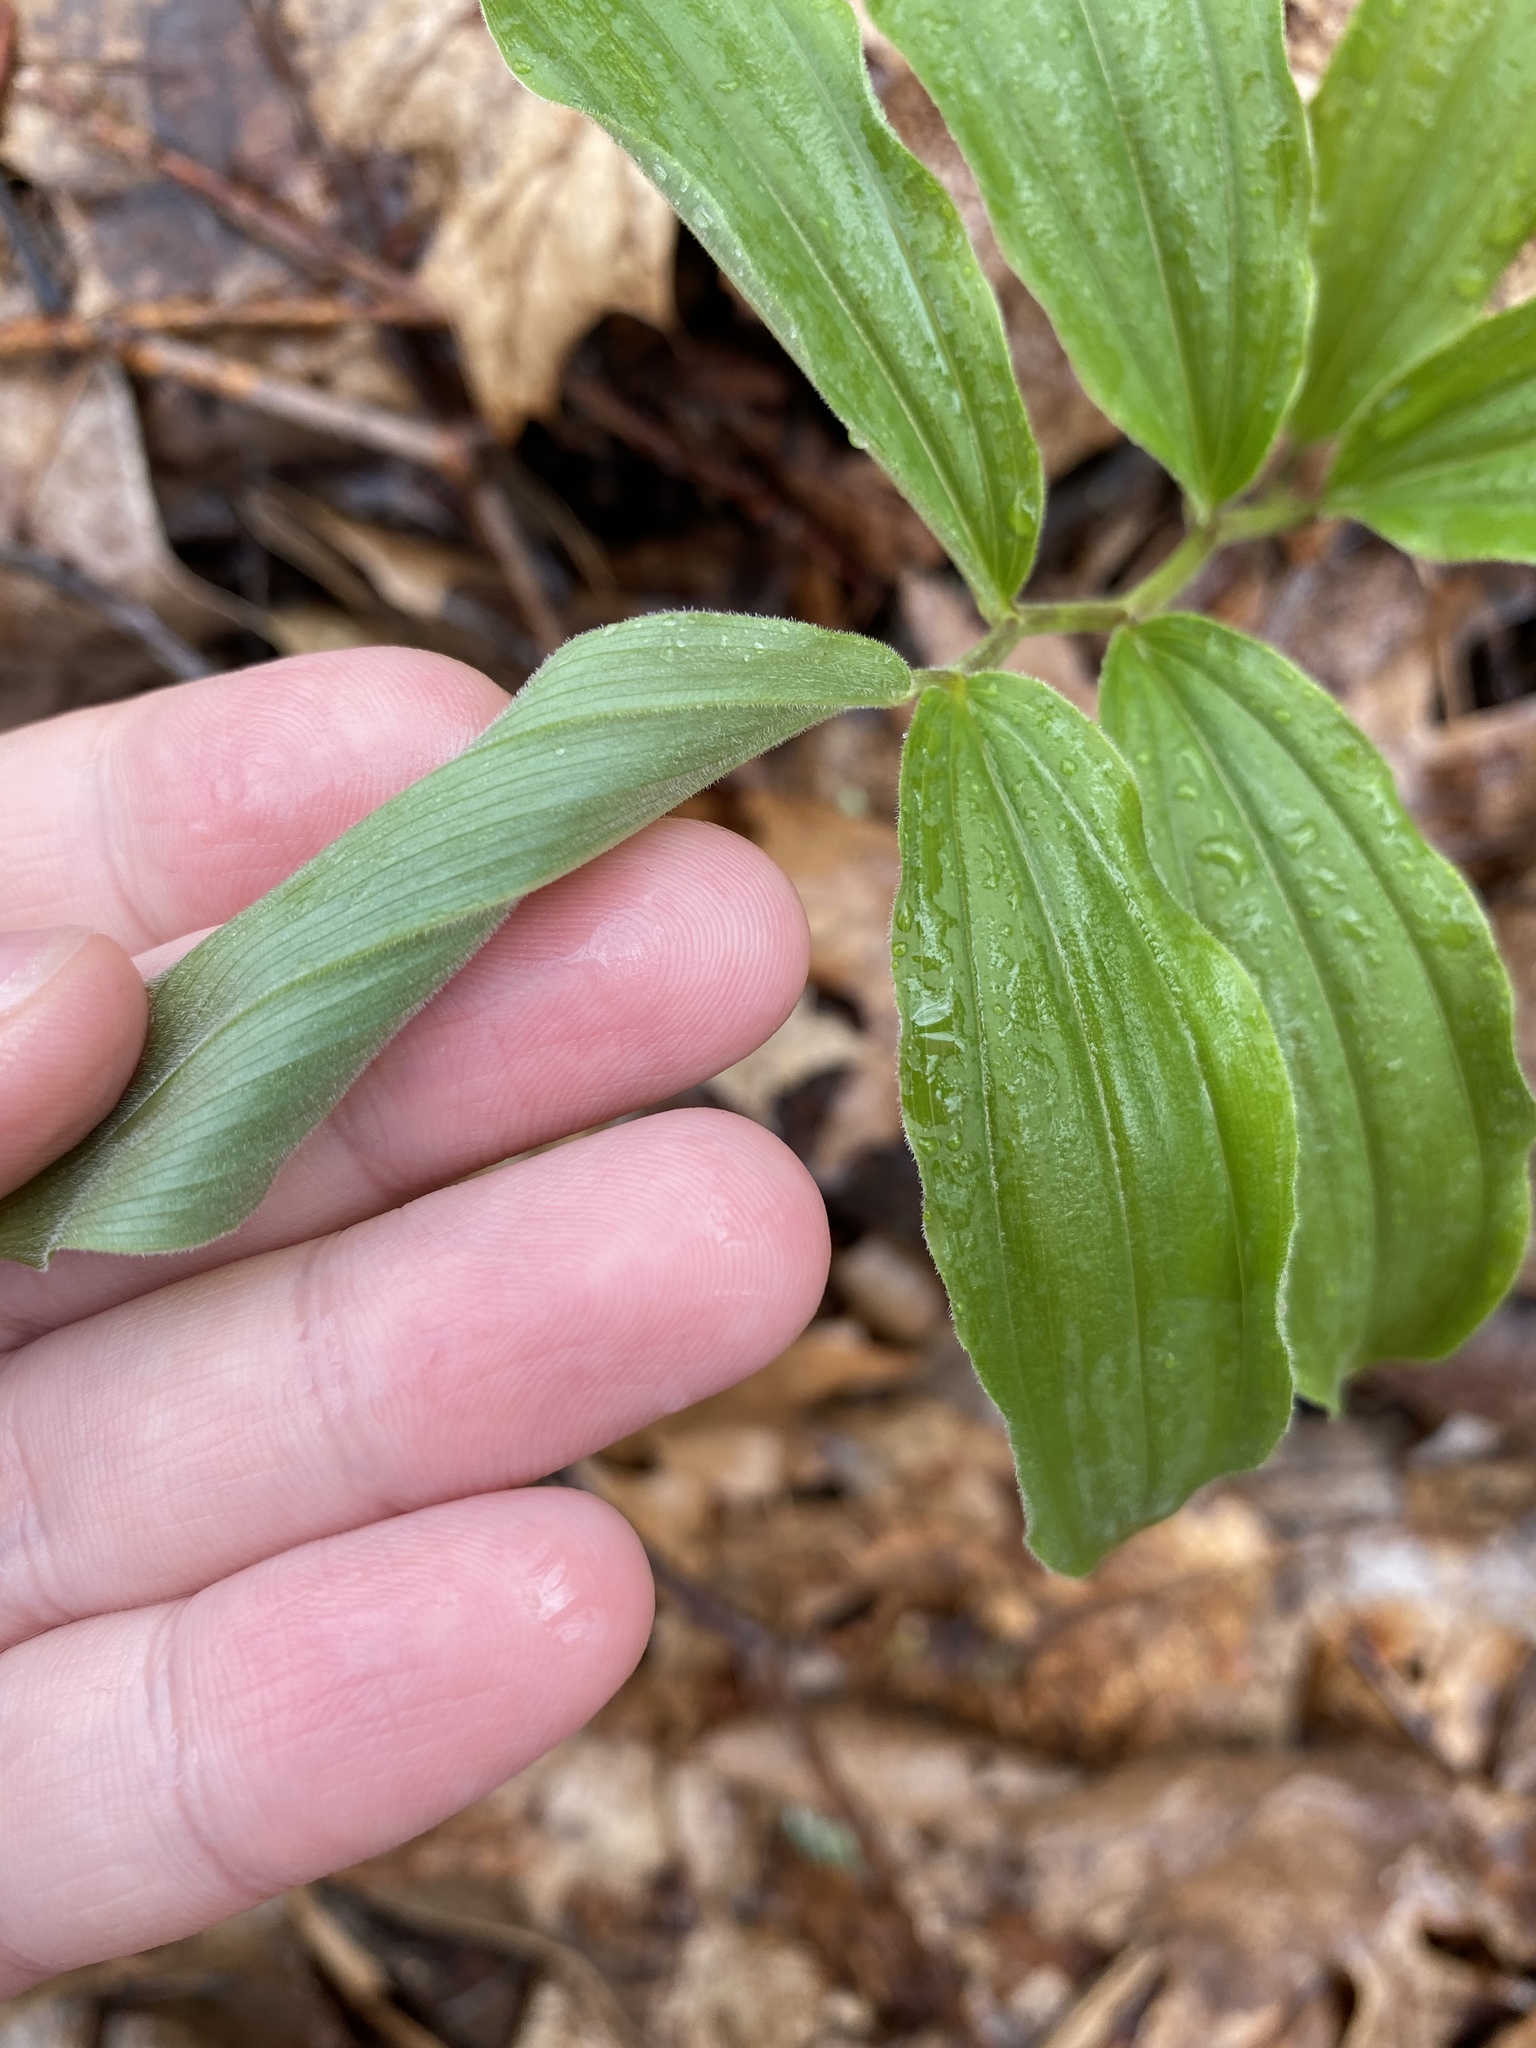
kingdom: Plantae
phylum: Tracheophyta
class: Liliopsida
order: Asparagales
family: Asparagaceae
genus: Maianthemum
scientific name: Maianthemum racemosum
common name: False spikenard
